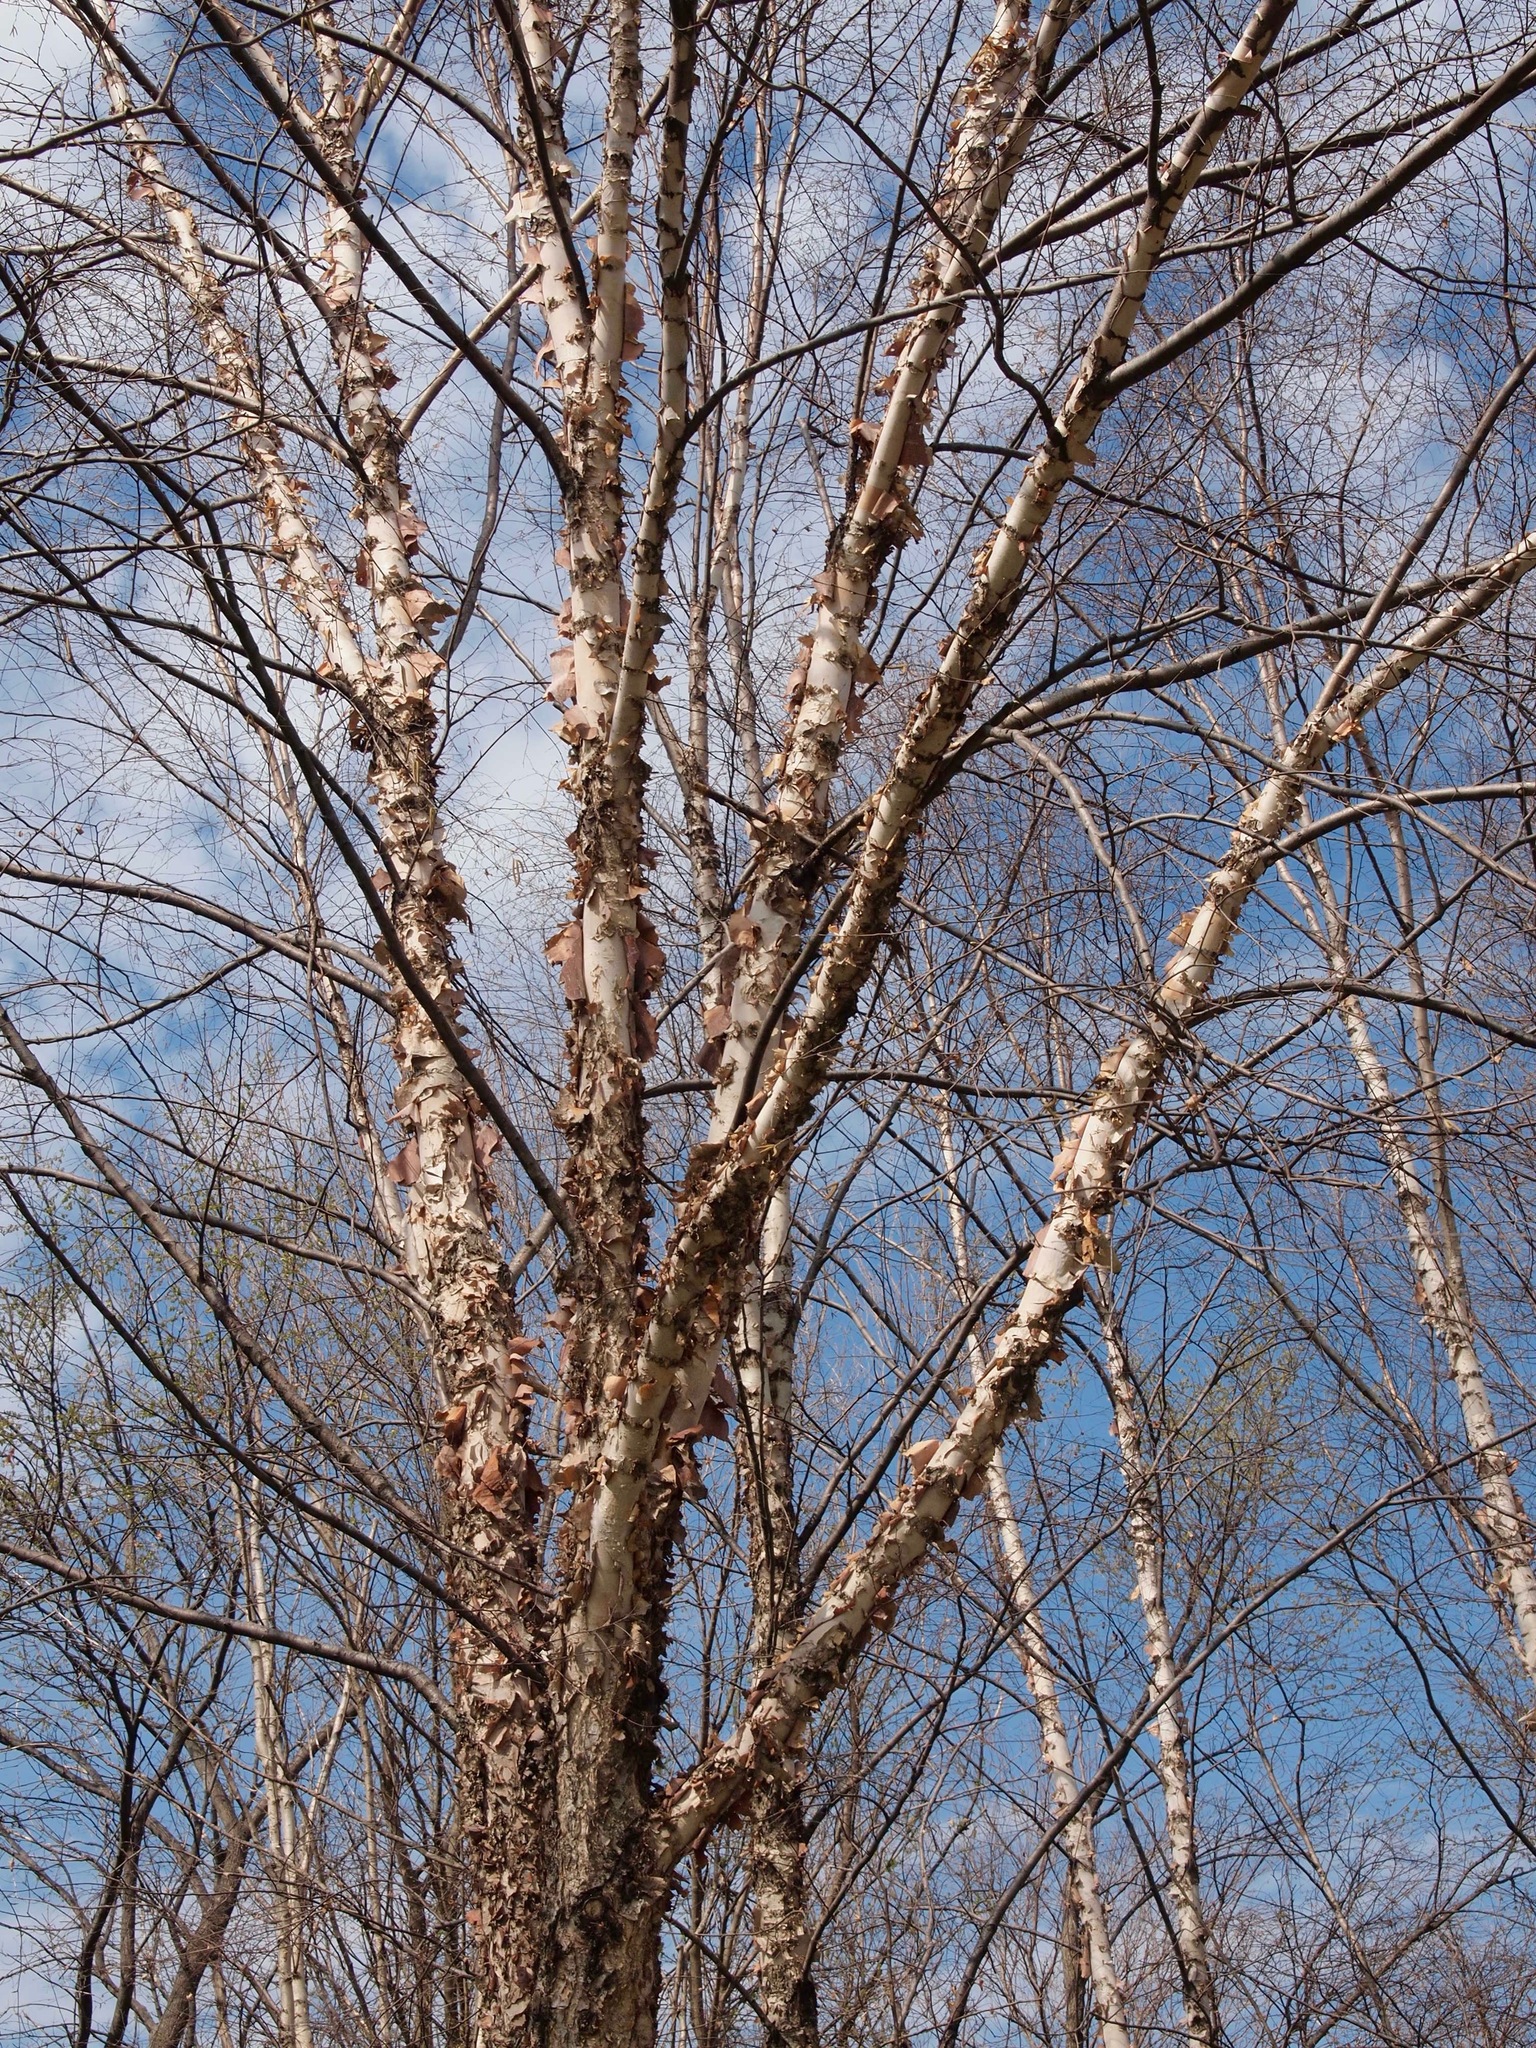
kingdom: Plantae
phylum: Tracheophyta
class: Magnoliopsida
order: Fagales
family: Betulaceae
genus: Betula
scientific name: Betula nigra
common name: Black birch
